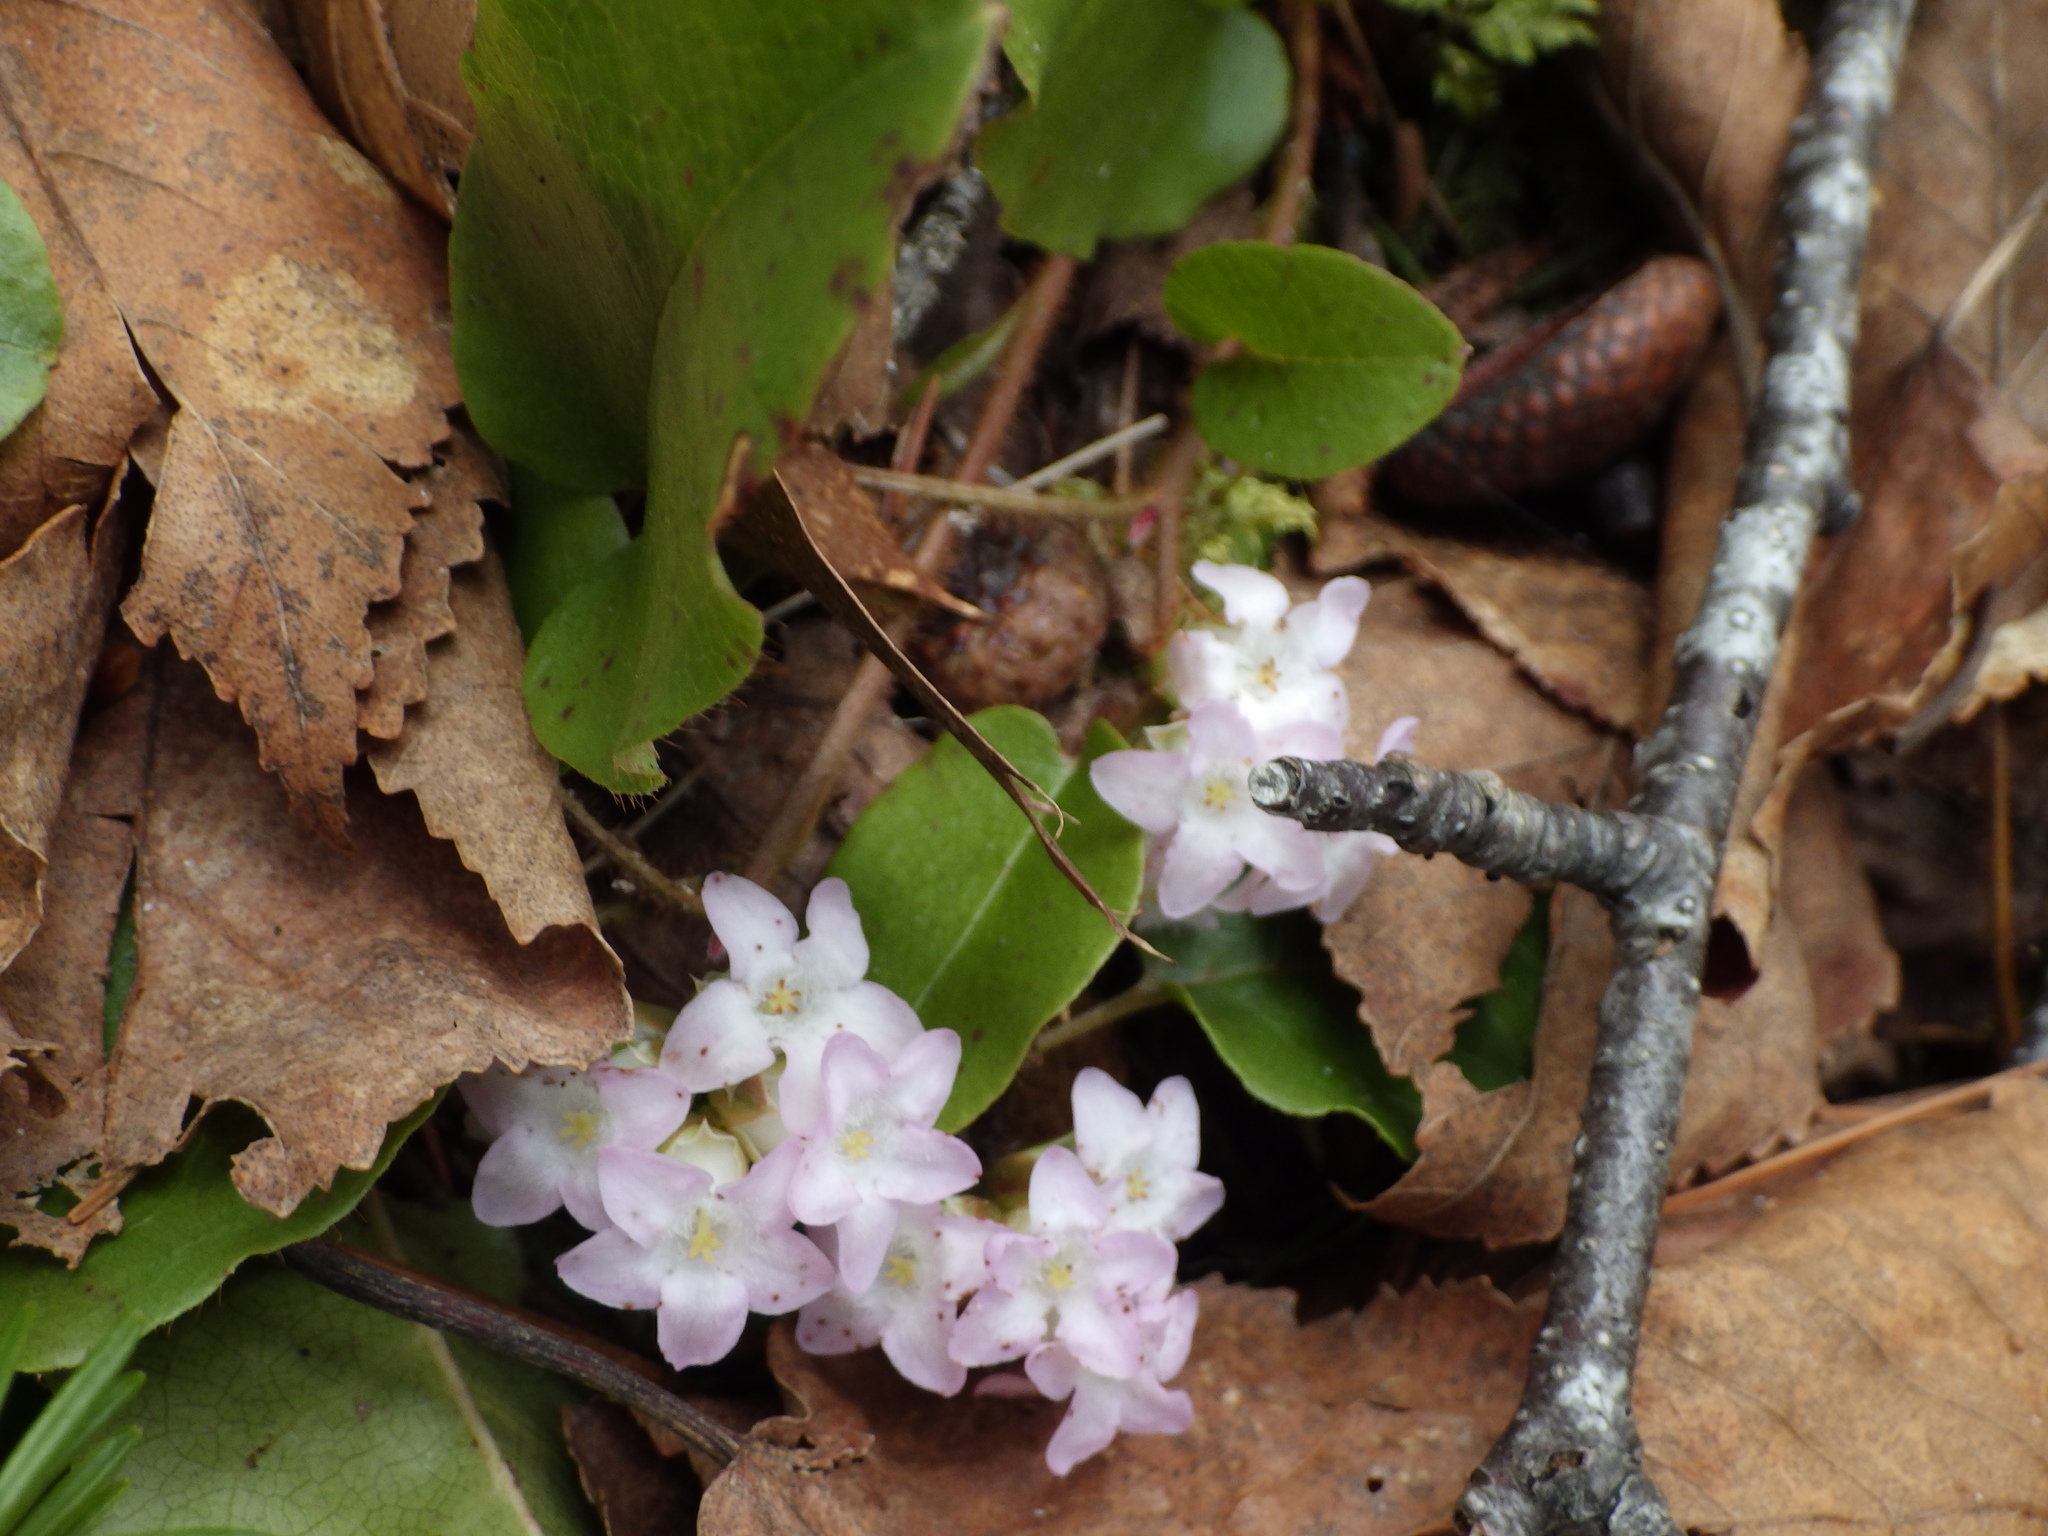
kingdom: Plantae
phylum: Tracheophyta
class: Magnoliopsida
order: Ericales
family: Ericaceae
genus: Epigaea
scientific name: Epigaea repens
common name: Gravelroot
